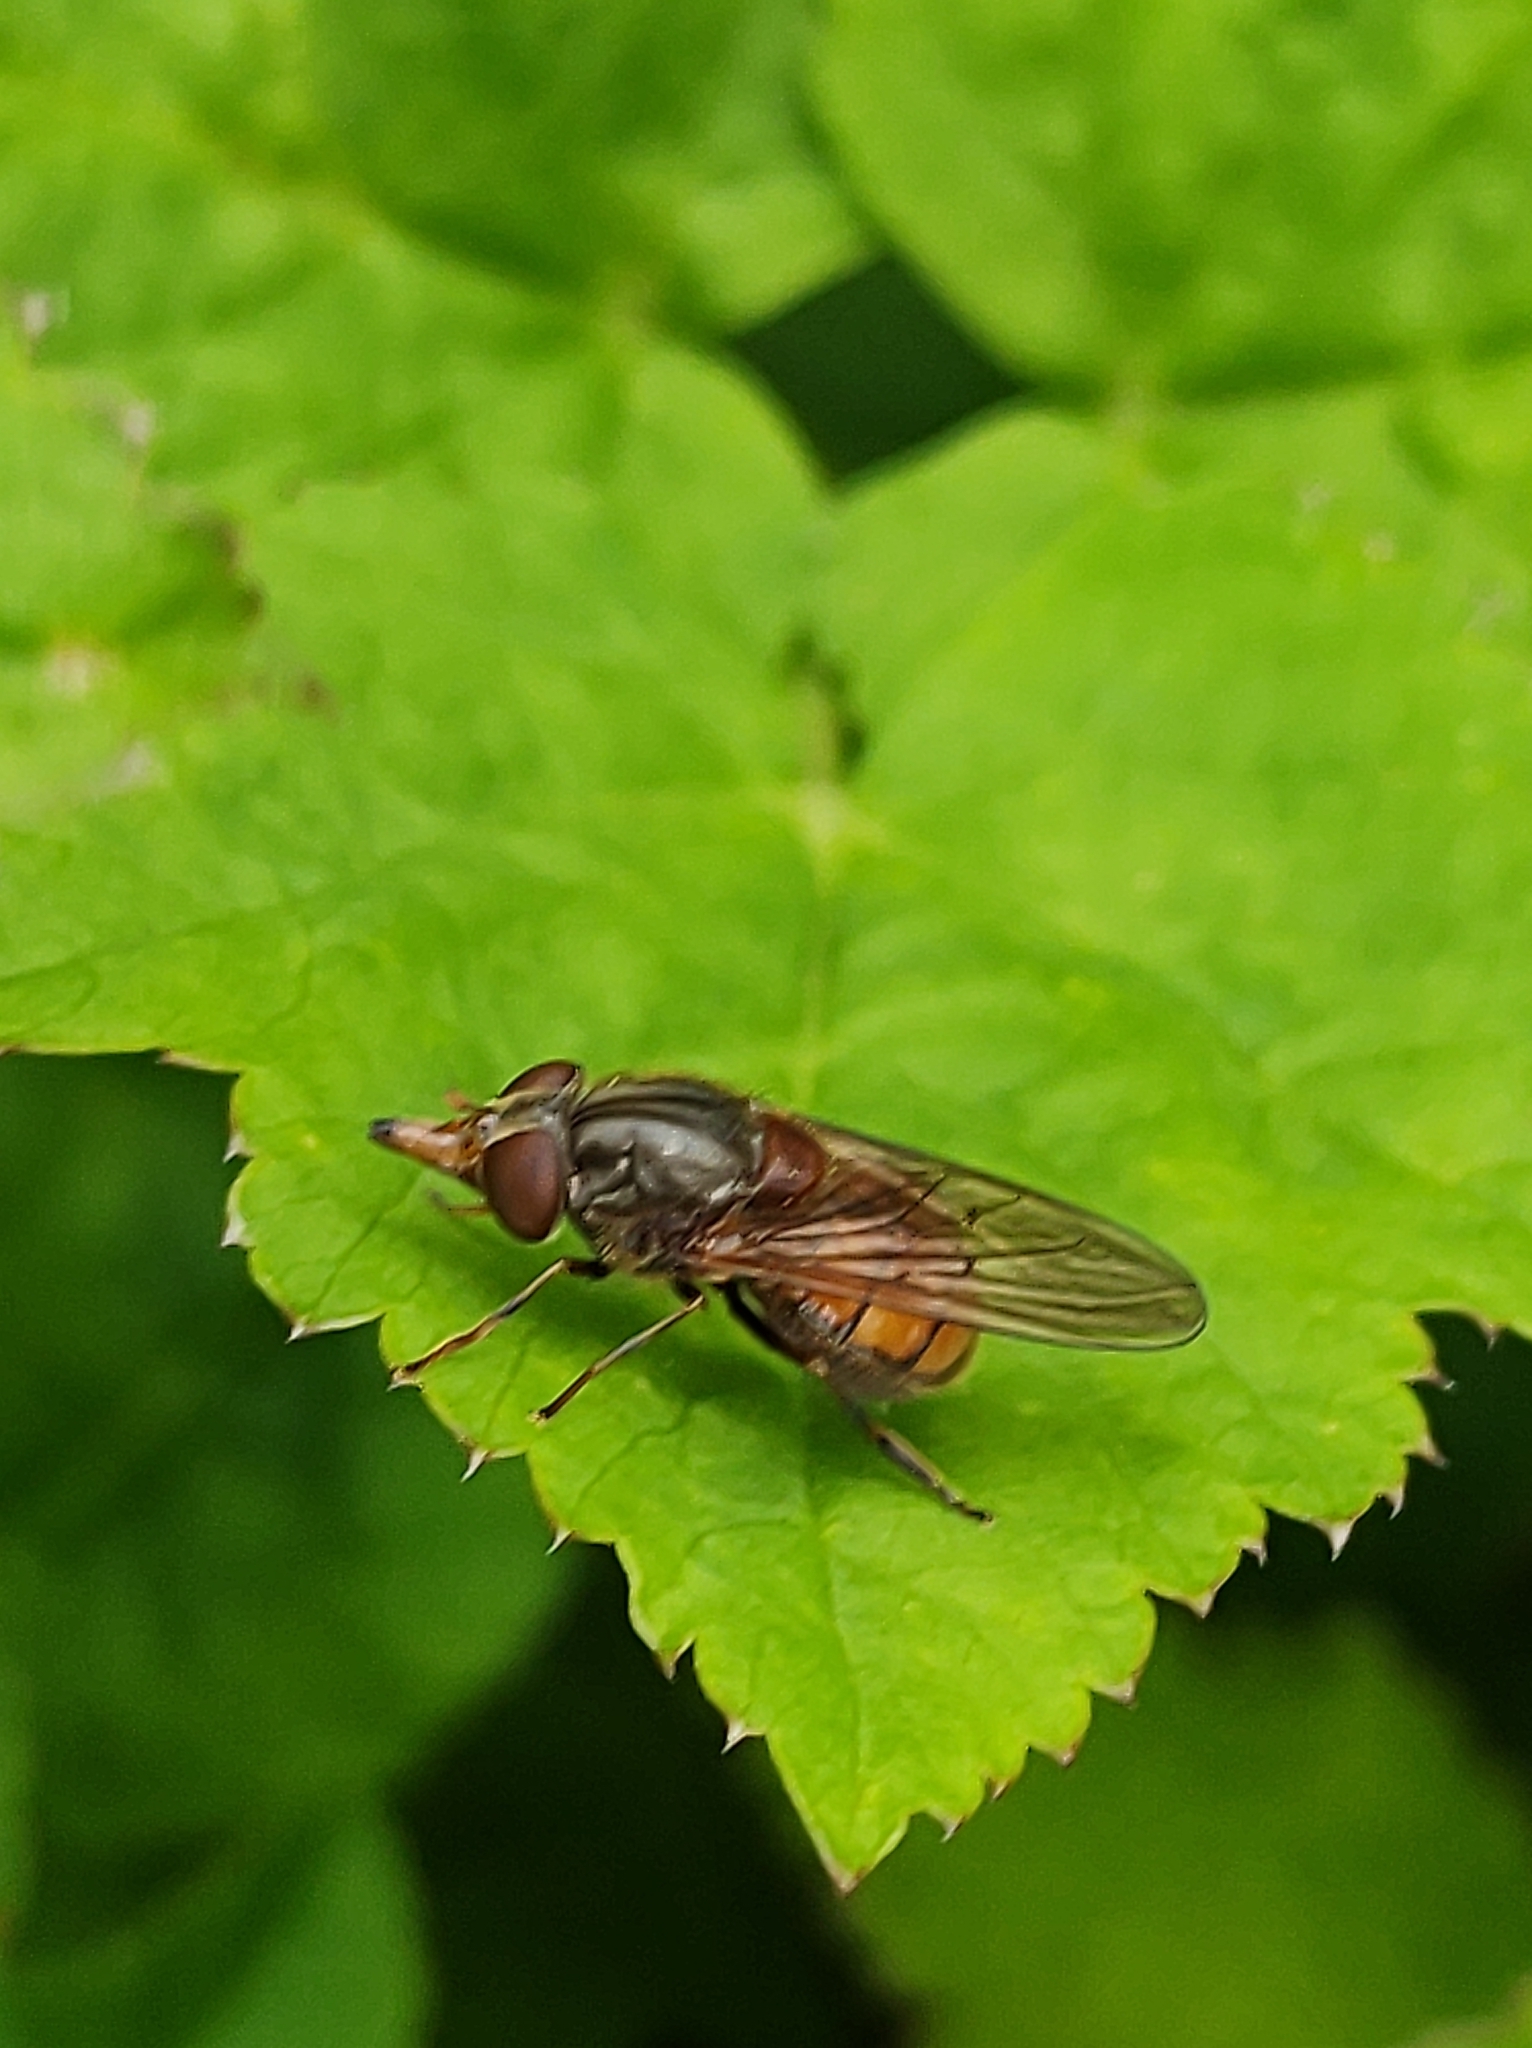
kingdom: Animalia
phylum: Arthropoda
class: Insecta
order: Diptera
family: Syrphidae
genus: Rhingia
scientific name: Rhingia campestris
